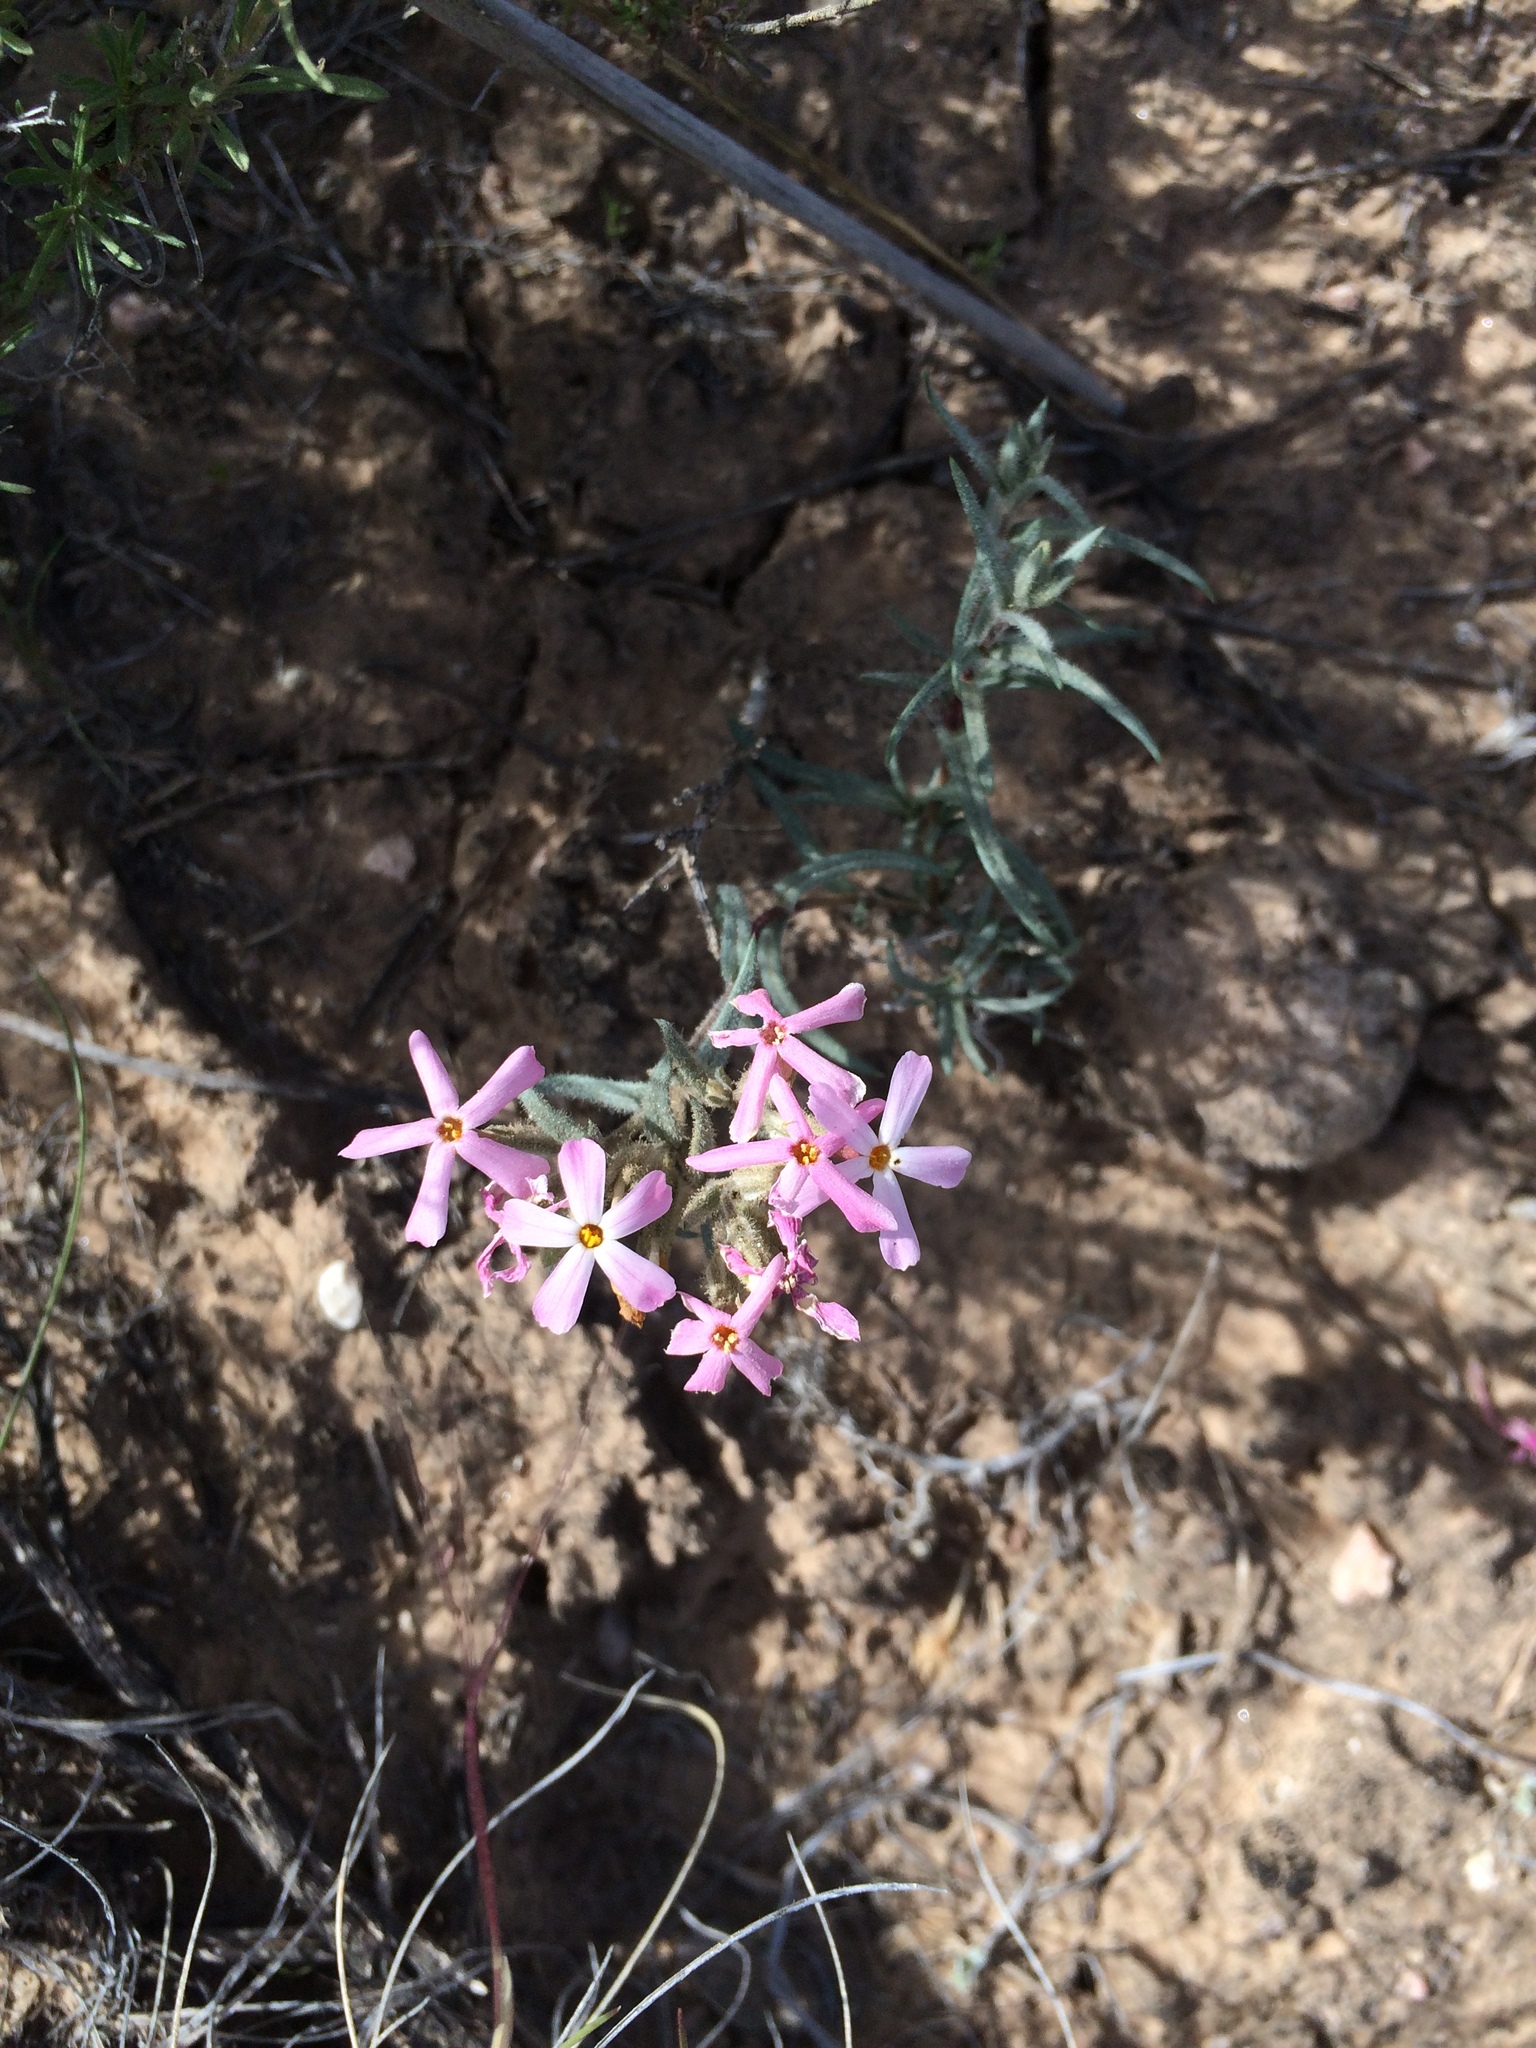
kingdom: Plantae
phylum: Tracheophyta
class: Magnoliopsida
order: Ericales
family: Polemoniaceae
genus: Phlox
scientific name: Phlox amabilis
